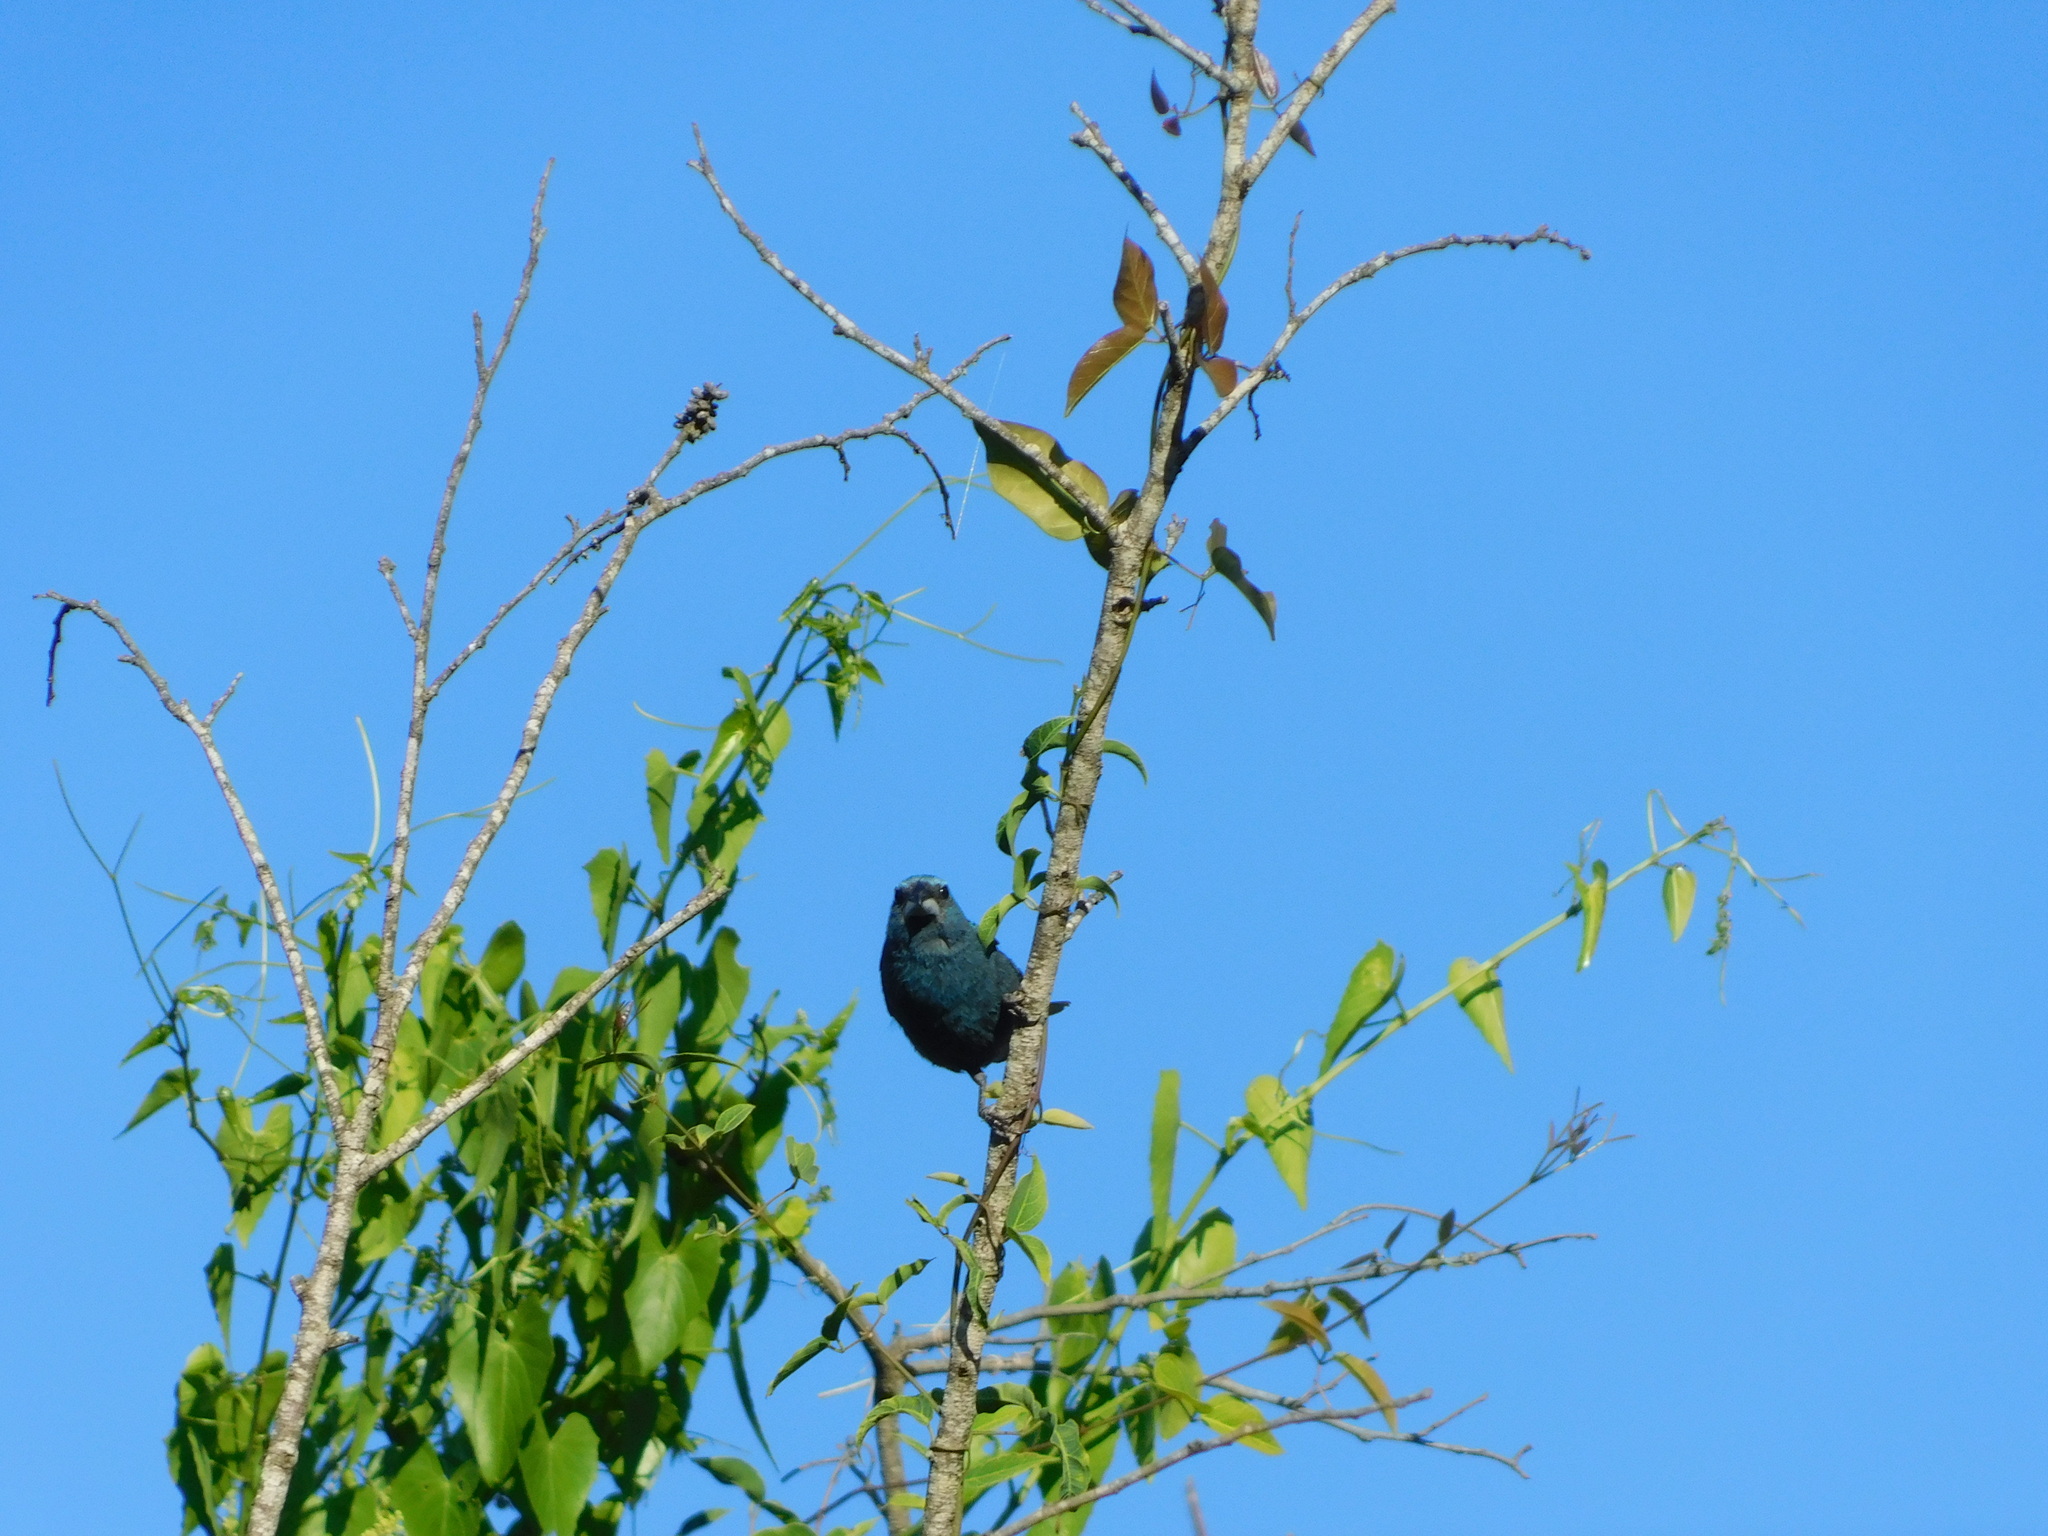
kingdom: Animalia
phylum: Chordata
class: Aves
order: Passeriformes
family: Cardinalidae
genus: Cyanoloxia
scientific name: Cyanoloxia glaucocaerulea
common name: Glaucous-blue grosbeak
